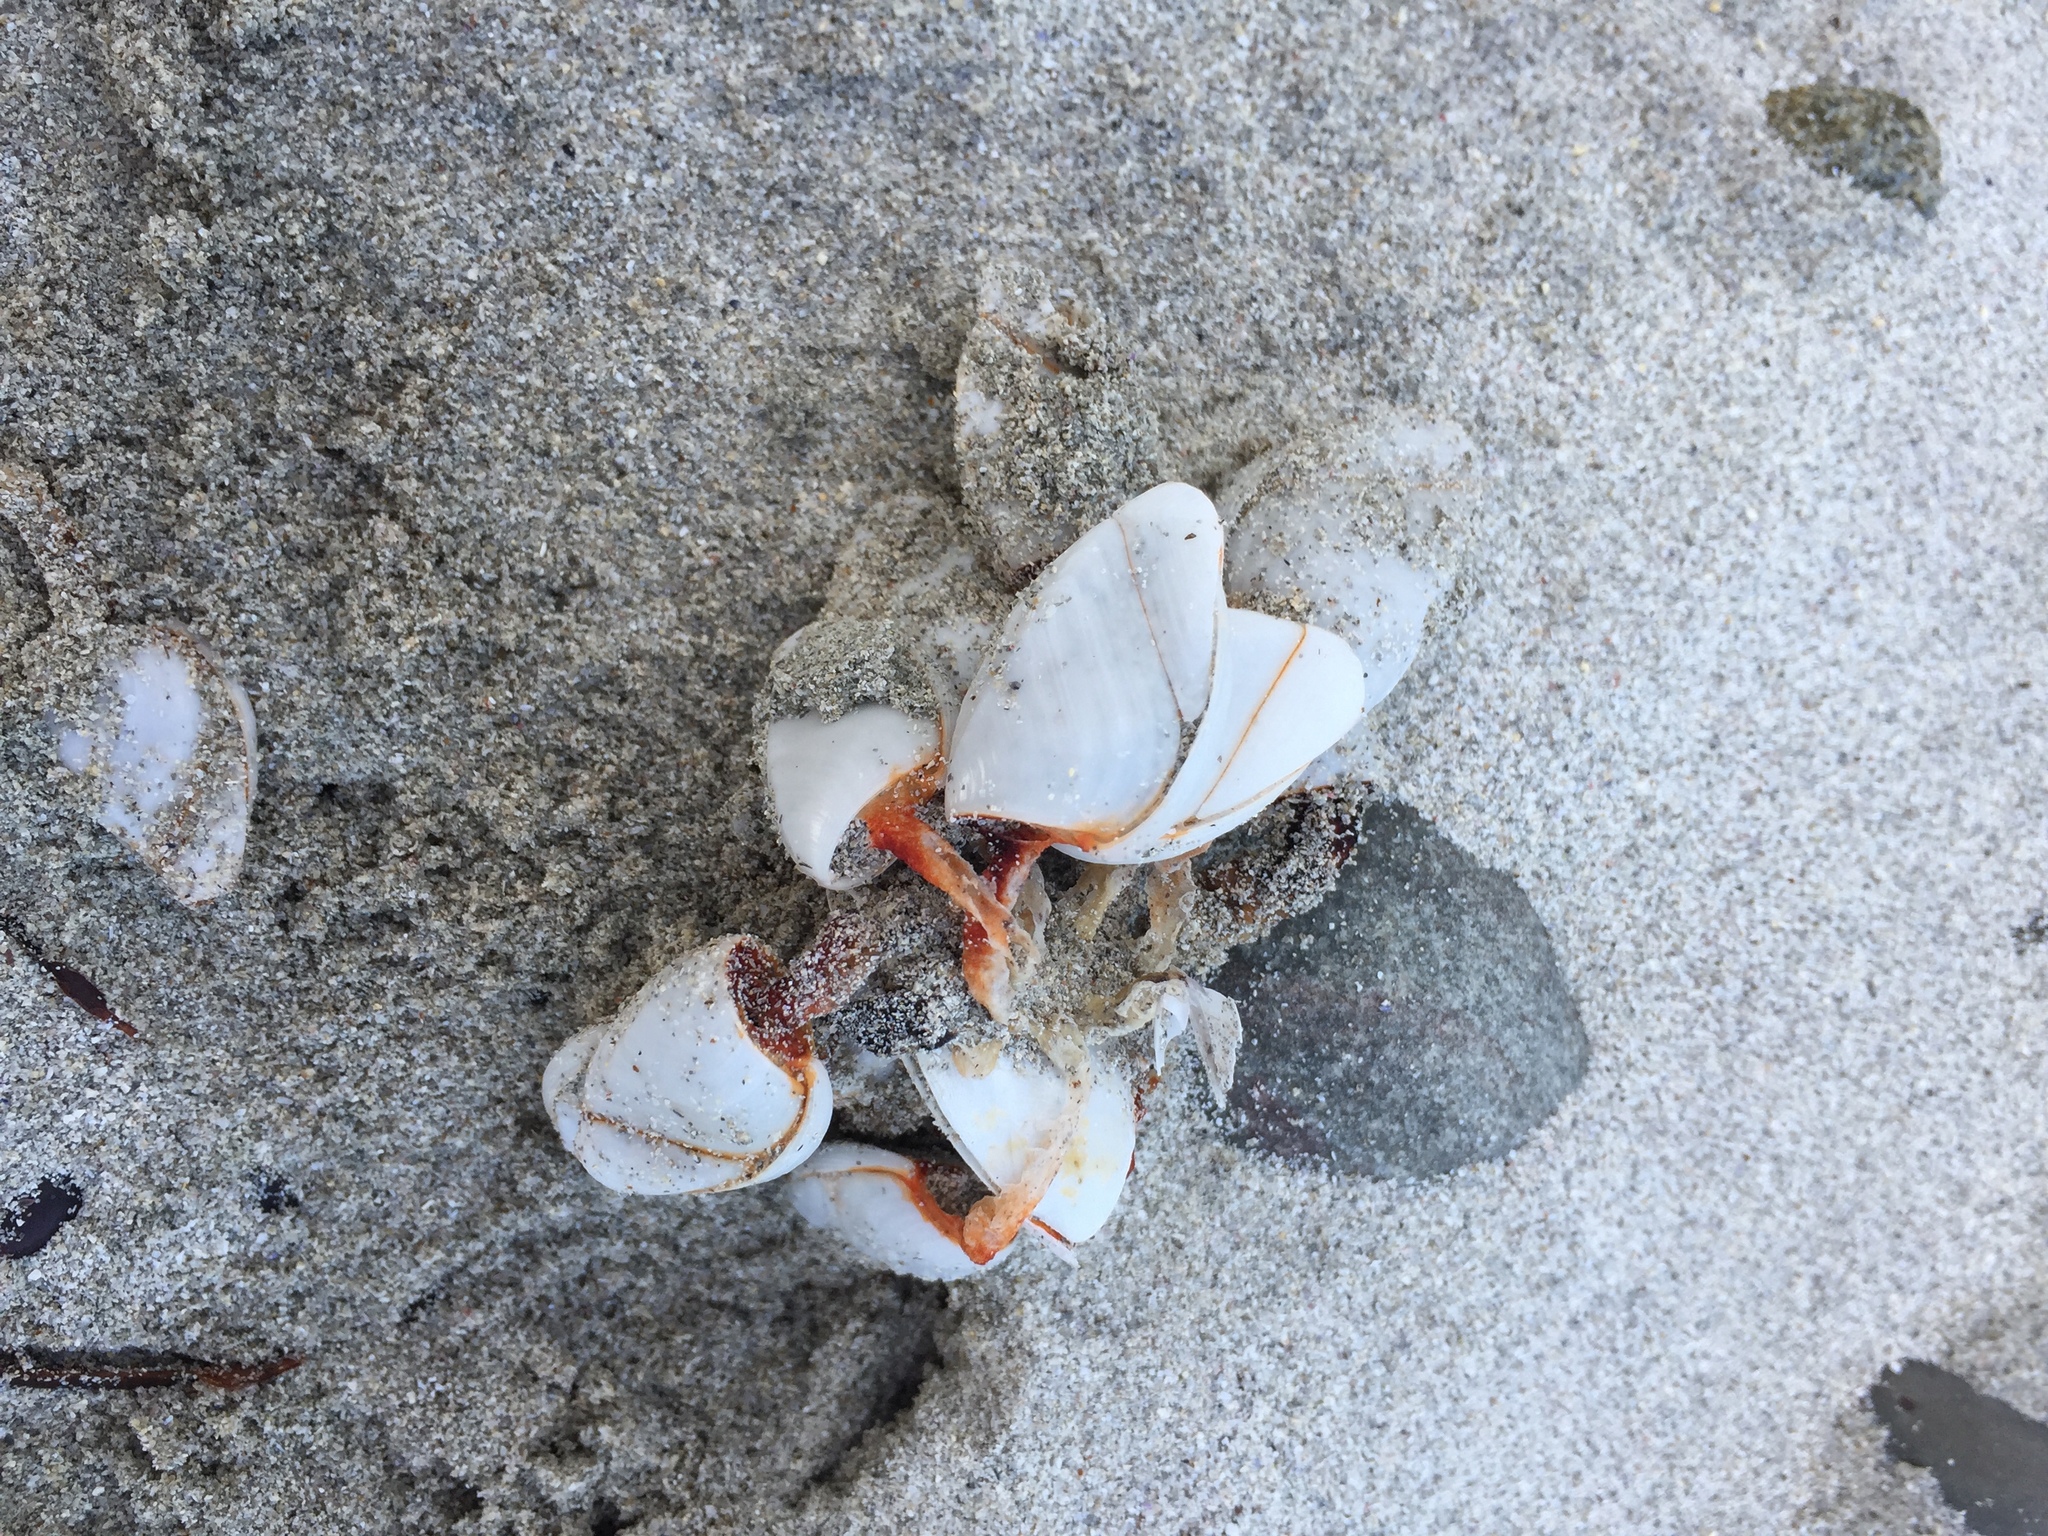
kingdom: Animalia
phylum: Arthropoda
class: Maxillopoda
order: Pedunculata
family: Lepadidae
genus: Lepas
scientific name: Lepas anatifera
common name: Common goose barnacle
